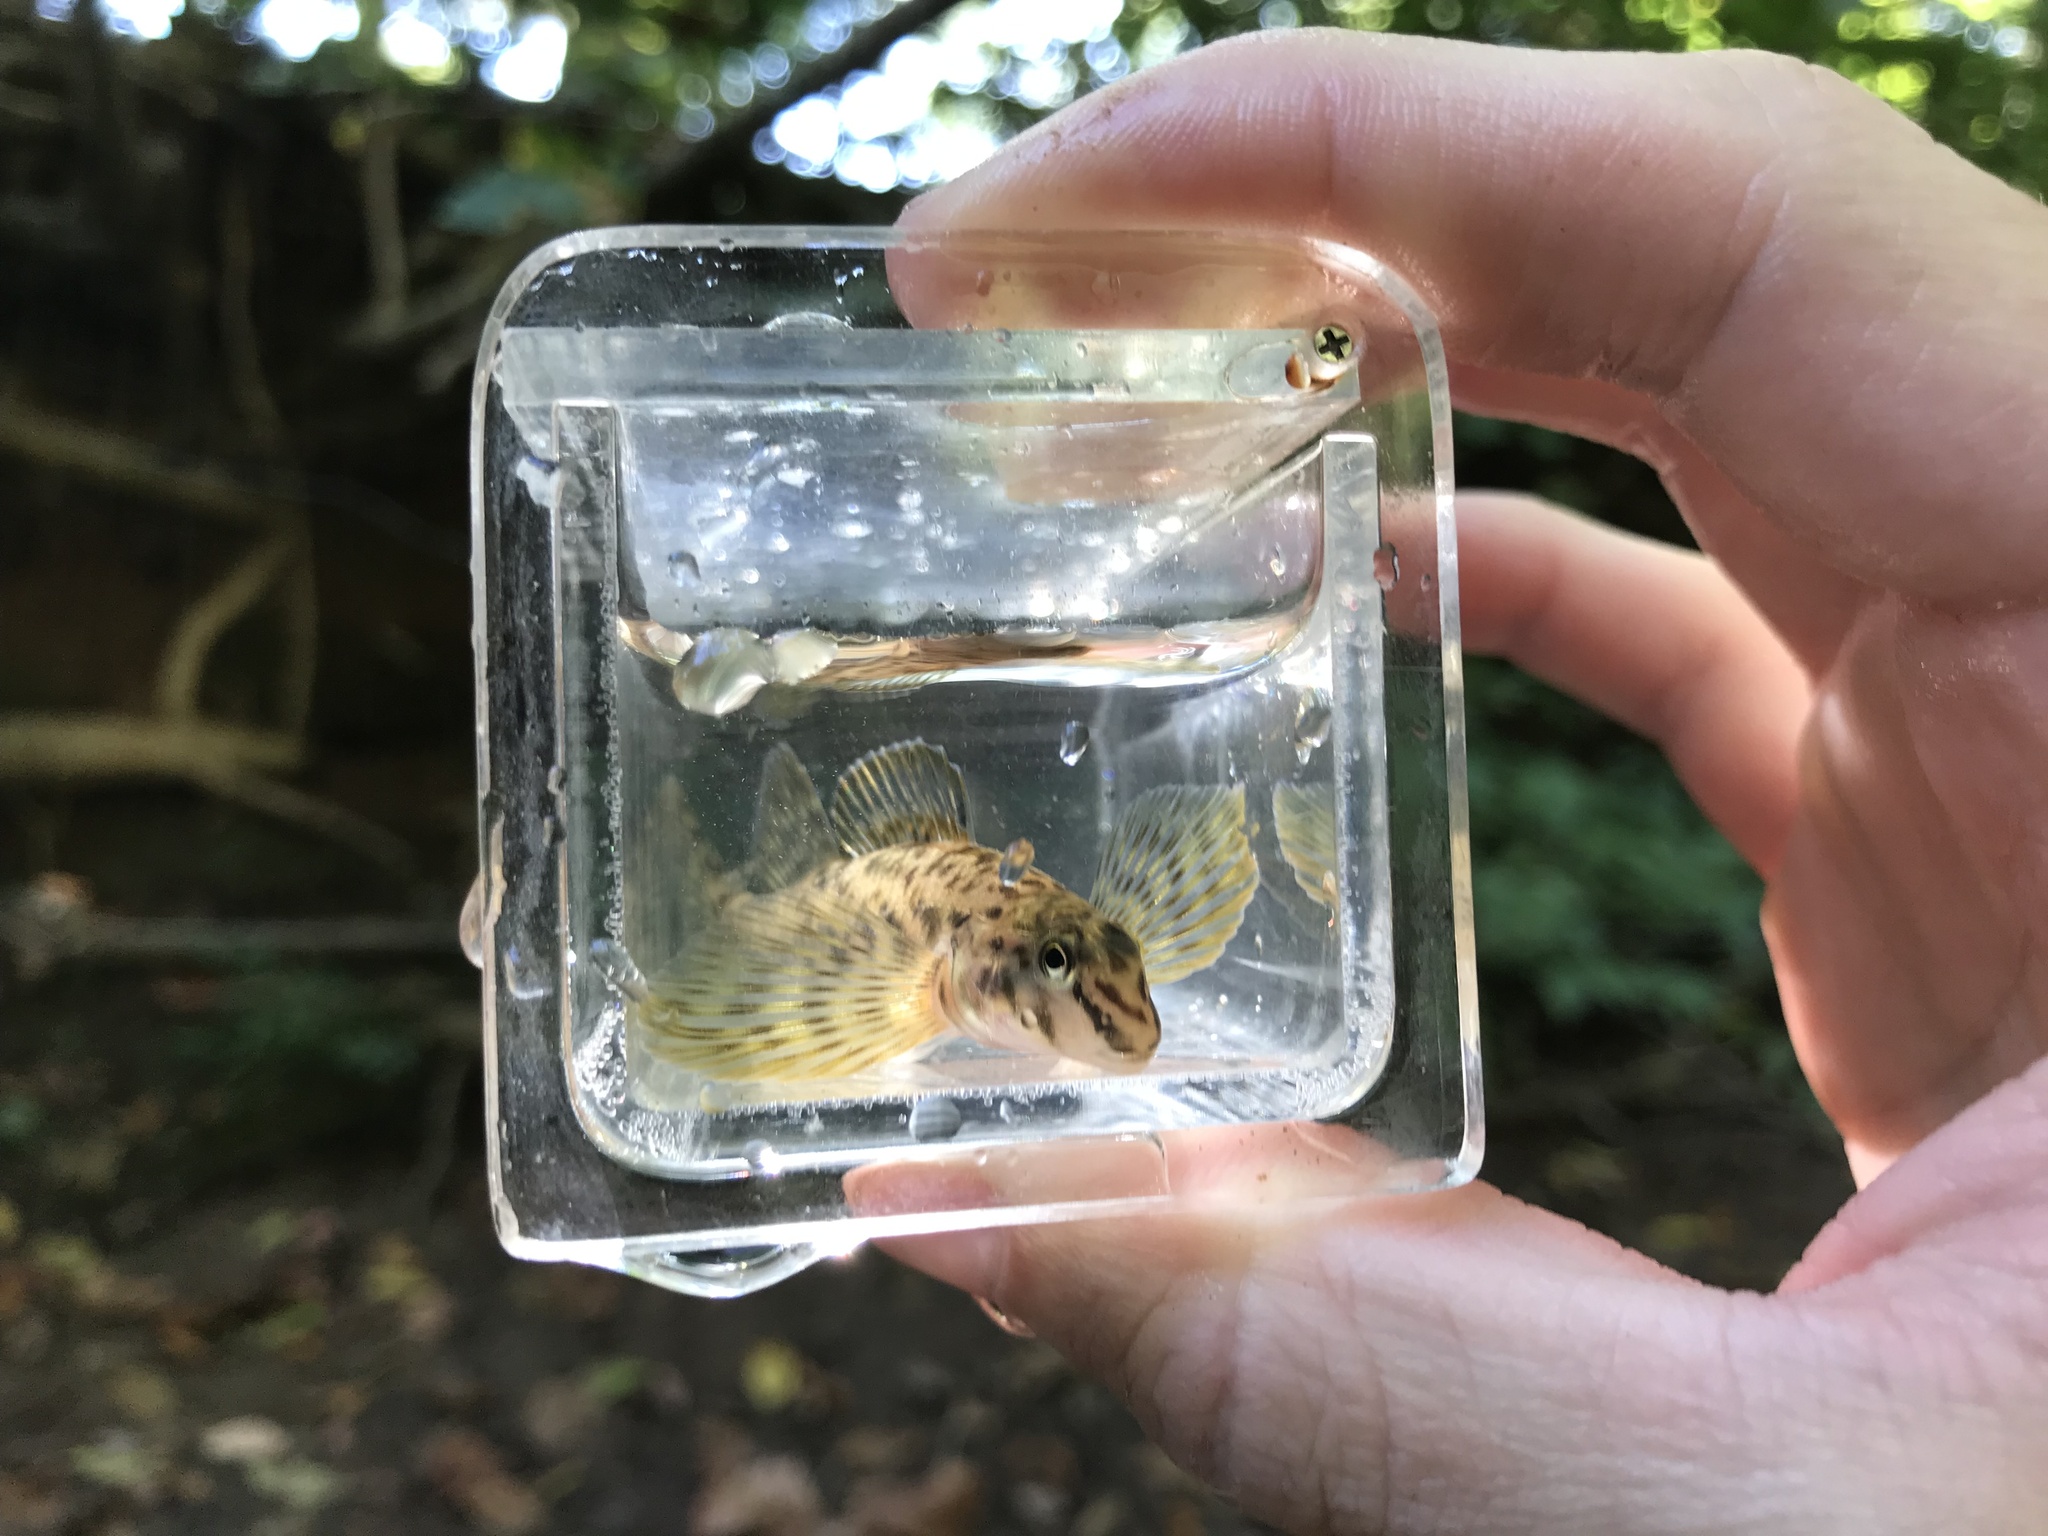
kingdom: Animalia
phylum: Chordata
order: Perciformes
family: Percidae
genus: Etheostoma
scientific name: Etheostoma blennioides
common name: Greenside darter
